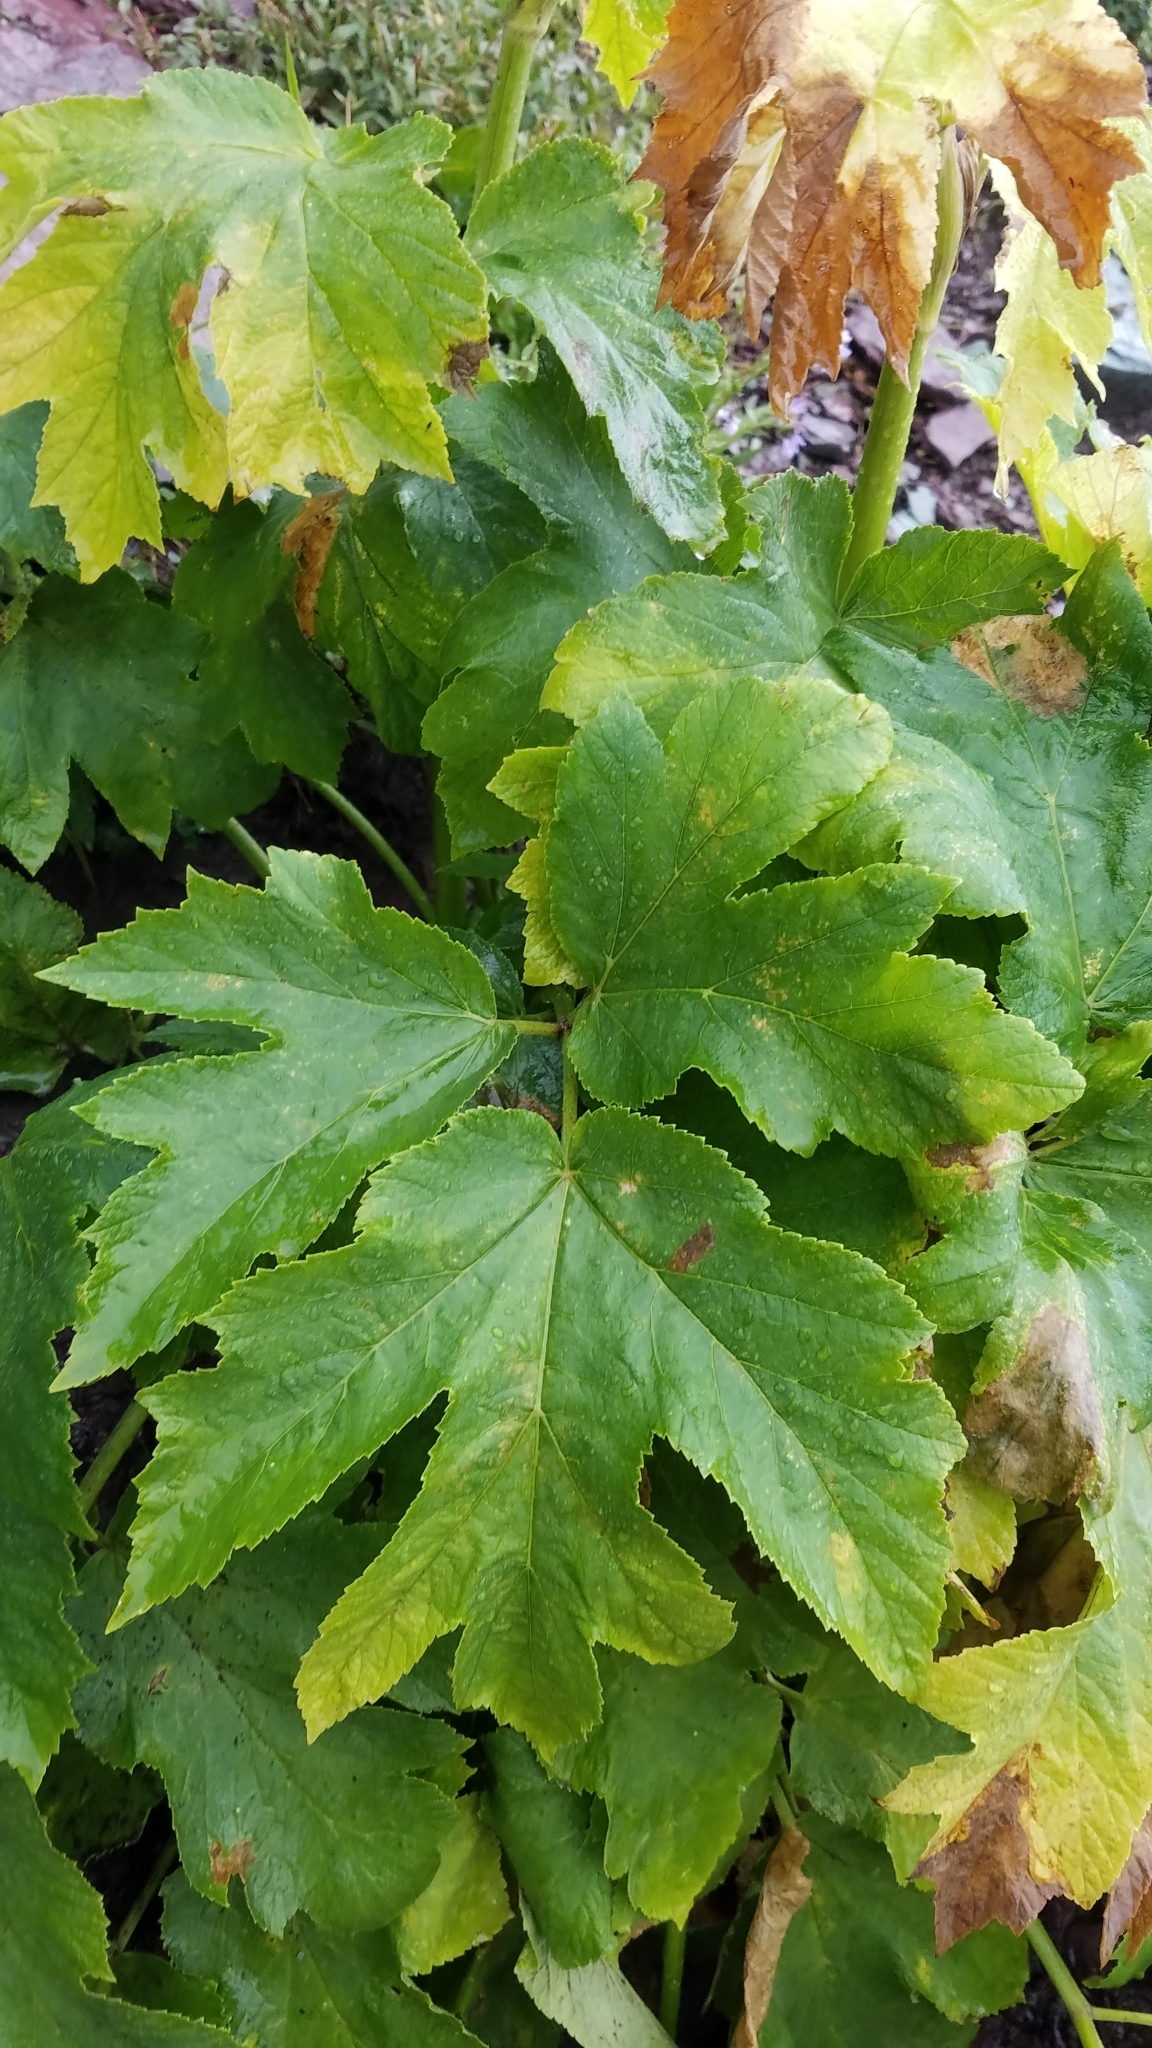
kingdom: Plantae
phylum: Tracheophyta
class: Magnoliopsida
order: Apiales
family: Apiaceae
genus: Heracleum
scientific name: Heracleum maximum
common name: American cow parsnip
